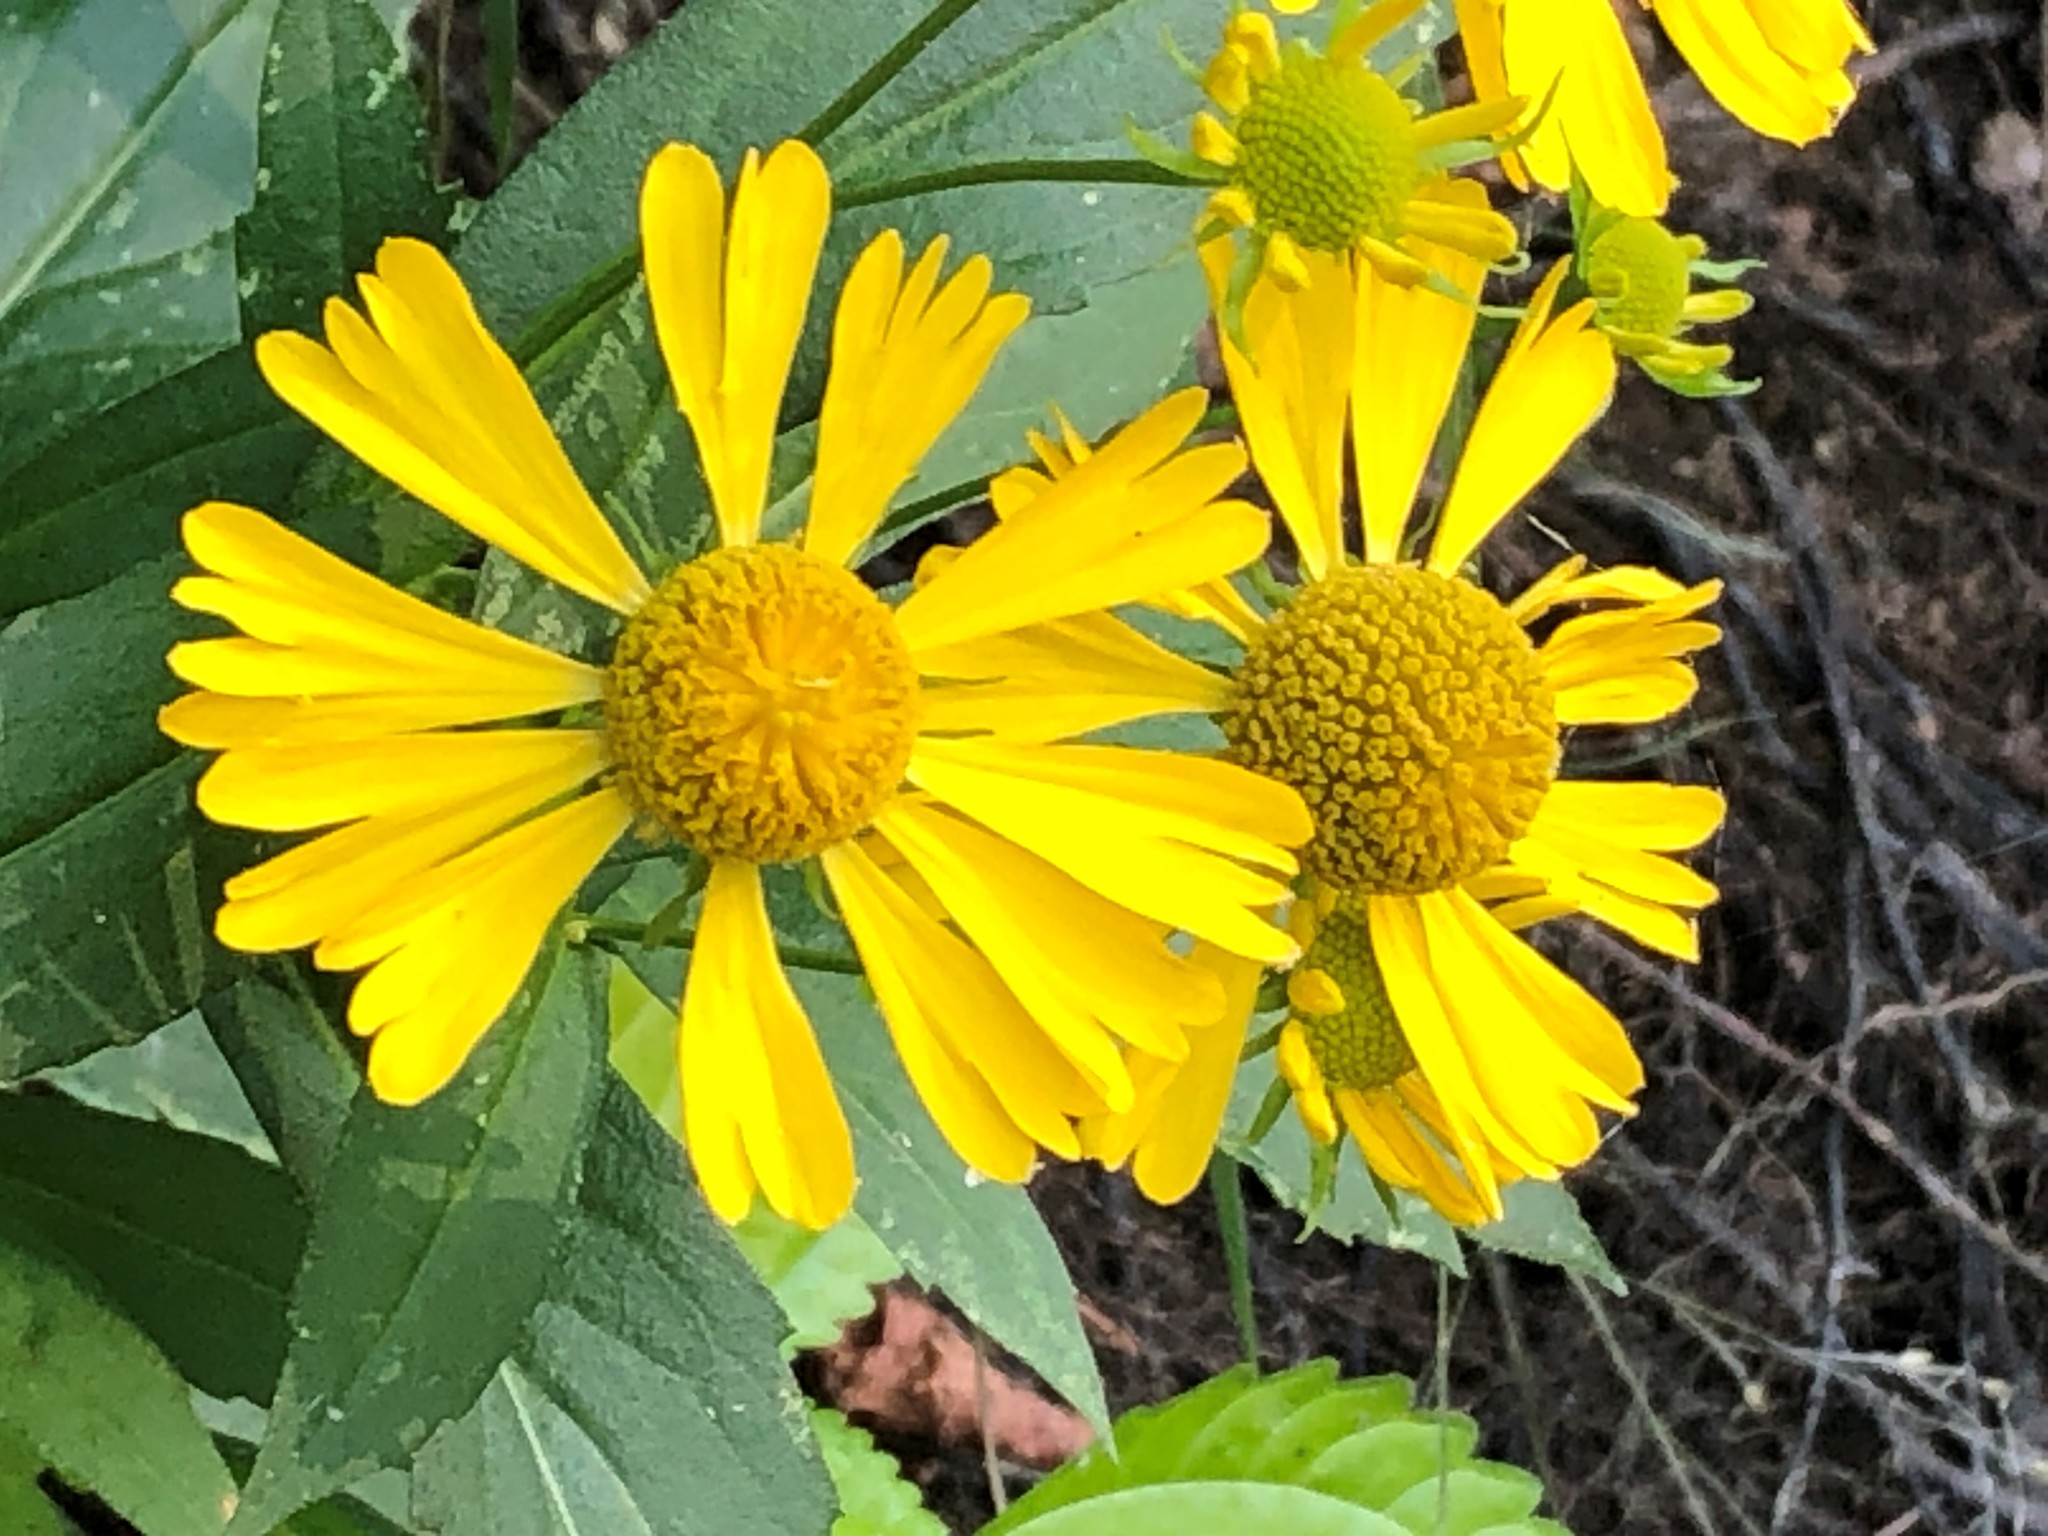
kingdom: Plantae
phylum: Tracheophyta
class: Magnoliopsida
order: Asterales
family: Asteraceae
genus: Helenium
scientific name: Helenium autumnale
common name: Sneezeweed
